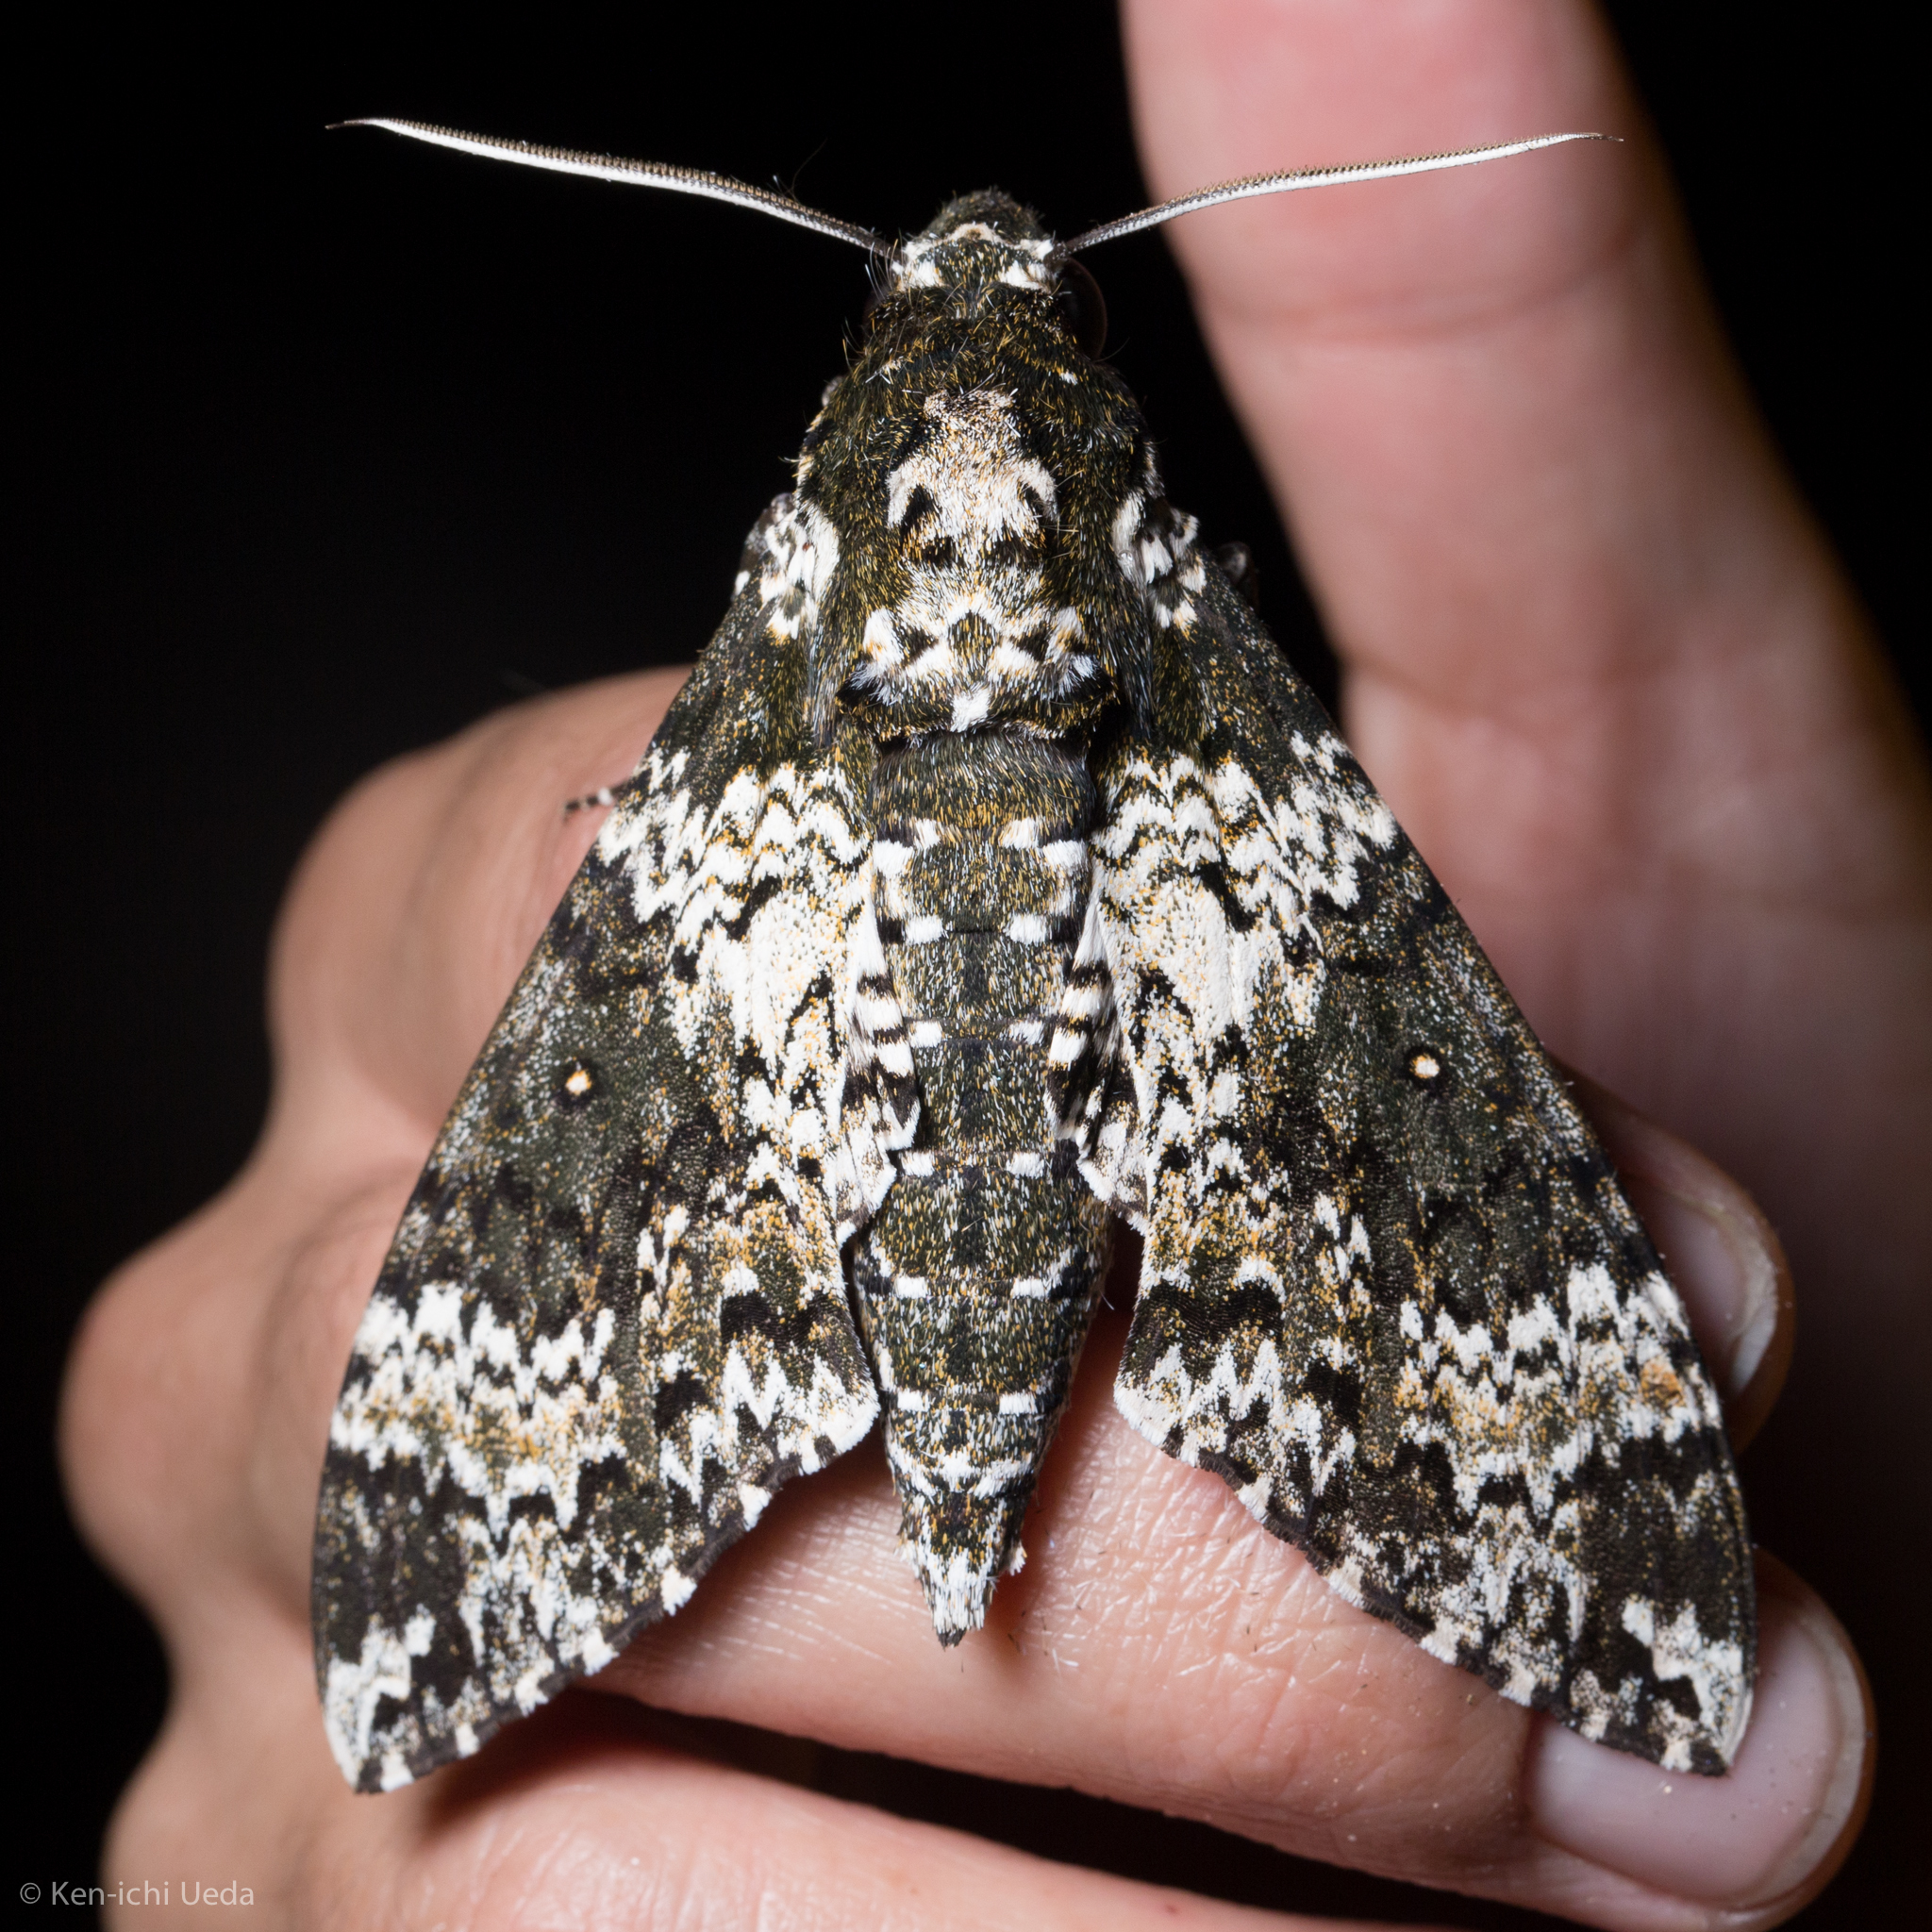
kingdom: Animalia
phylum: Arthropoda
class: Insecta
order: Lepidoptera
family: Sphingidae
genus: Manduca
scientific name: Manduca rustica
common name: Rustic sphinx
